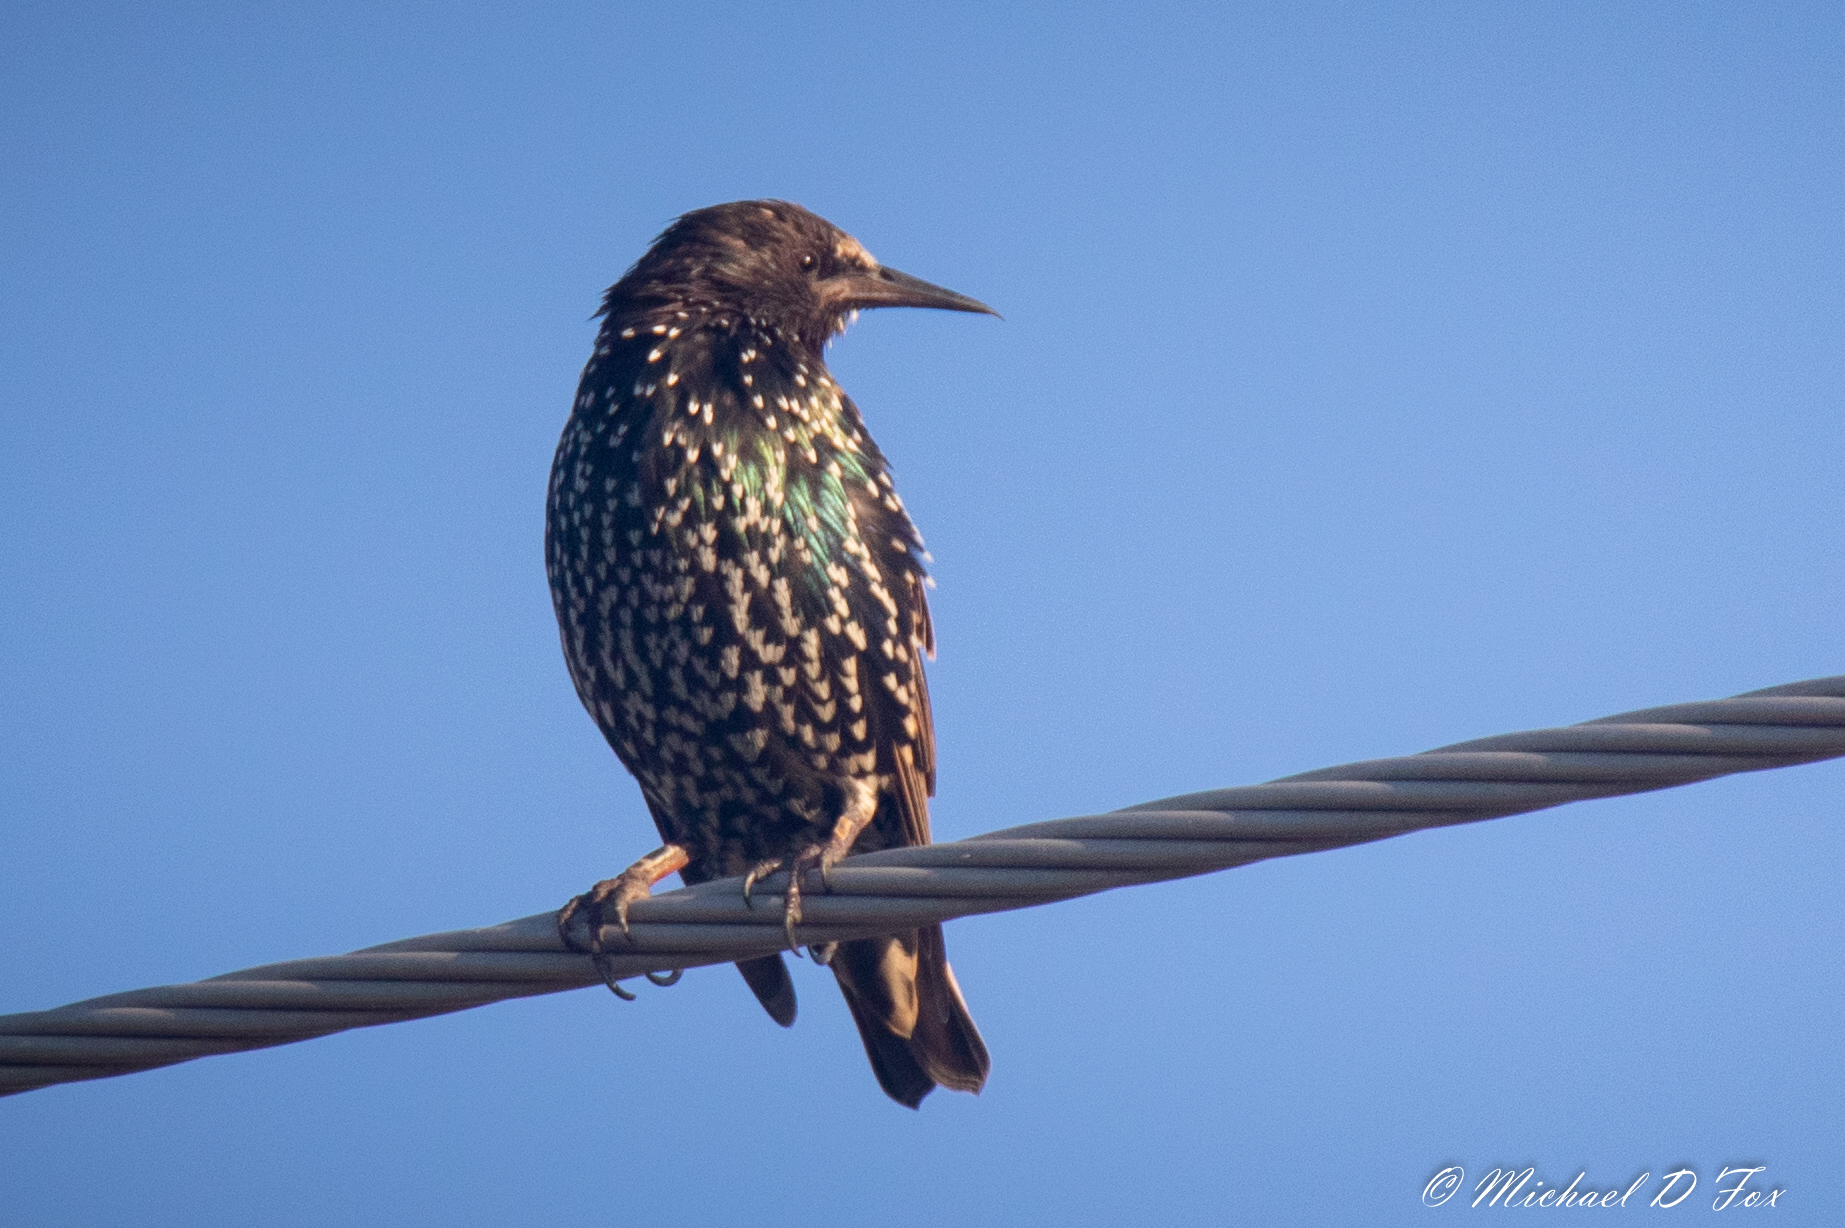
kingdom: Animalia
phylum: Chordata
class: Aves
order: Passeriformes
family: Sturnidae
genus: Sturnus
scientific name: Sturnus vulgaris
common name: Common starling
